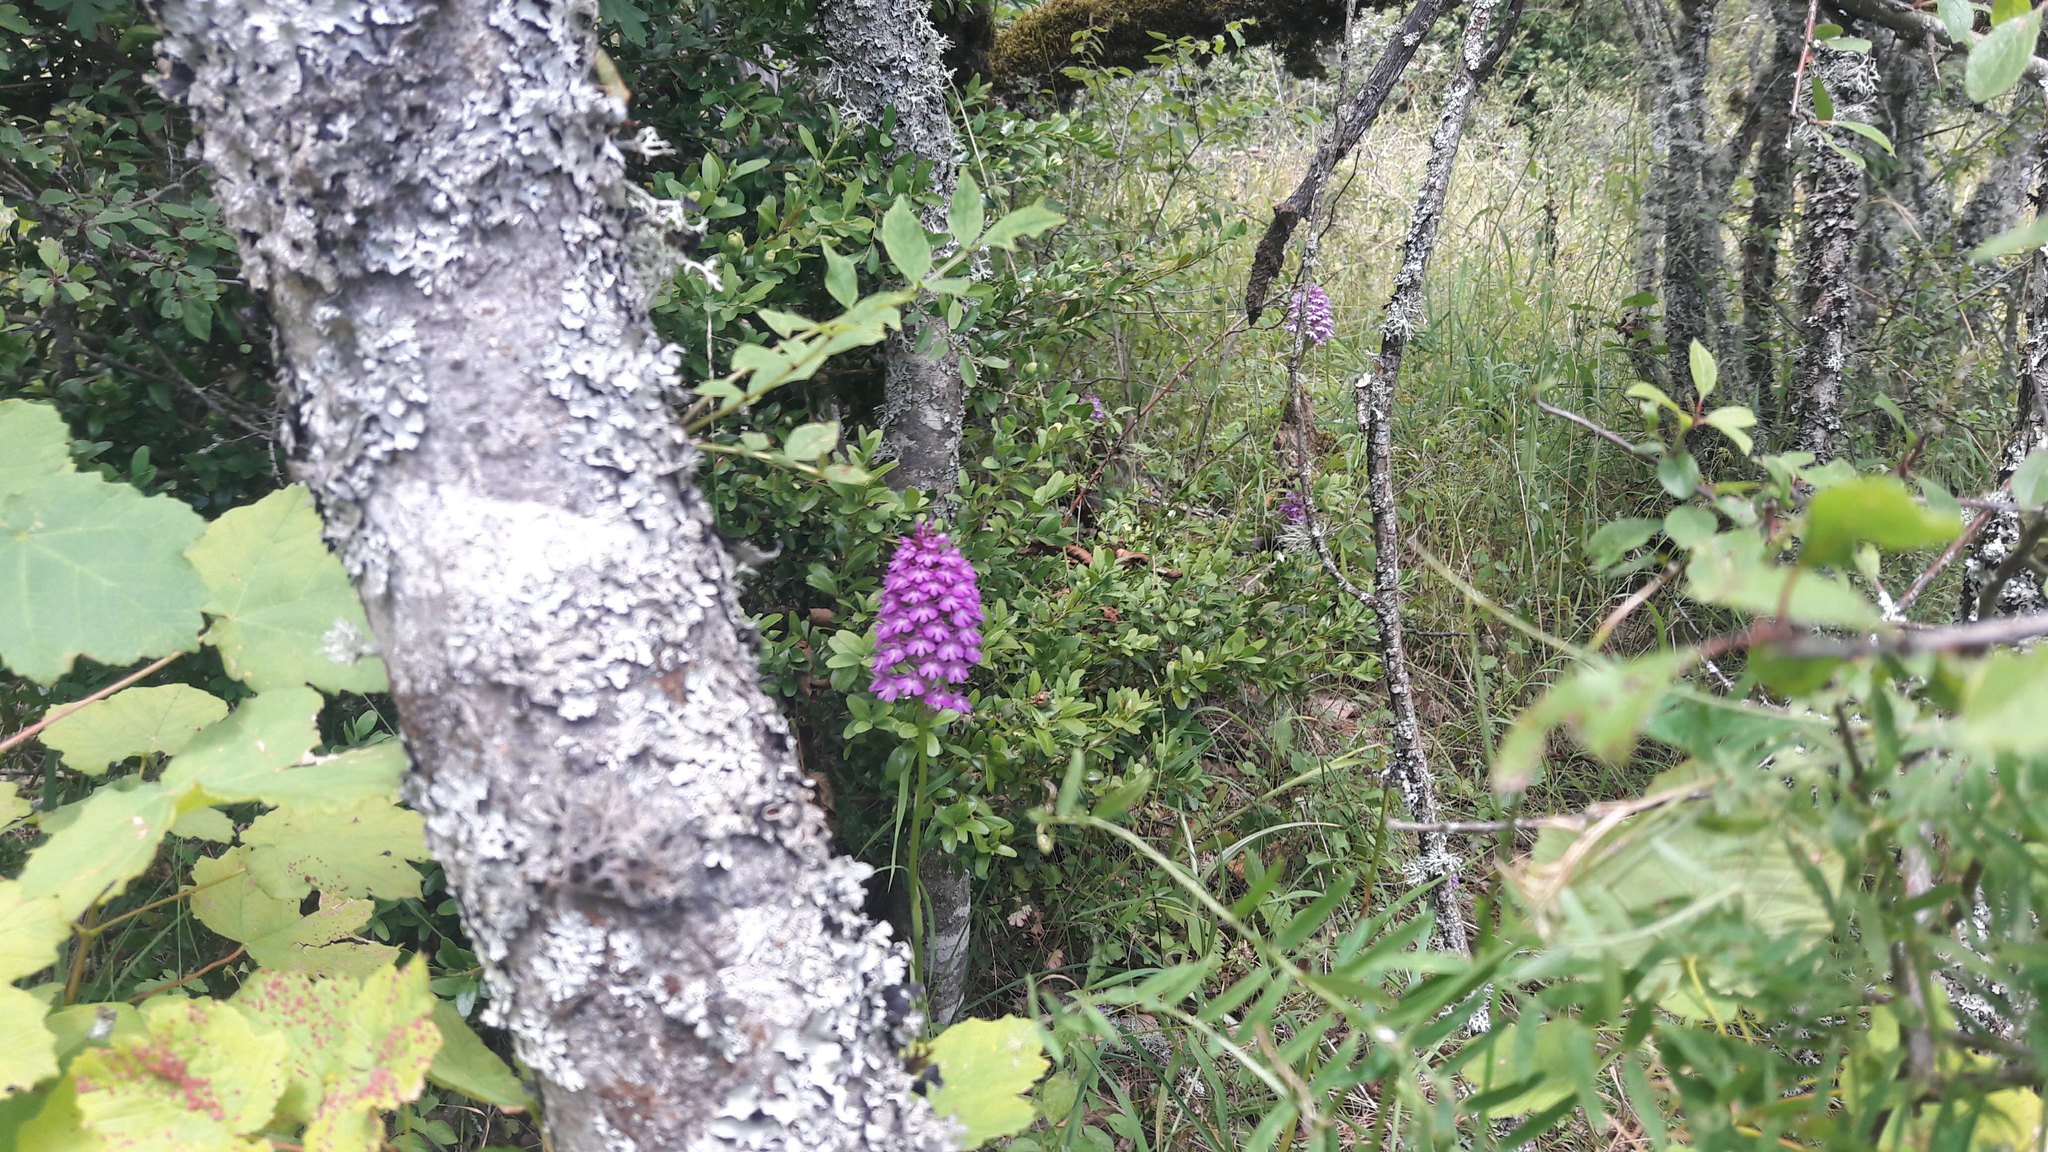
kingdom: Plantae
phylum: Tracheophyta
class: Liliopsida
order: Asparagales
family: Orchidaceae
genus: Anacamptis
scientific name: Anacamptis pyramidalis
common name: Pyramidal orchid
